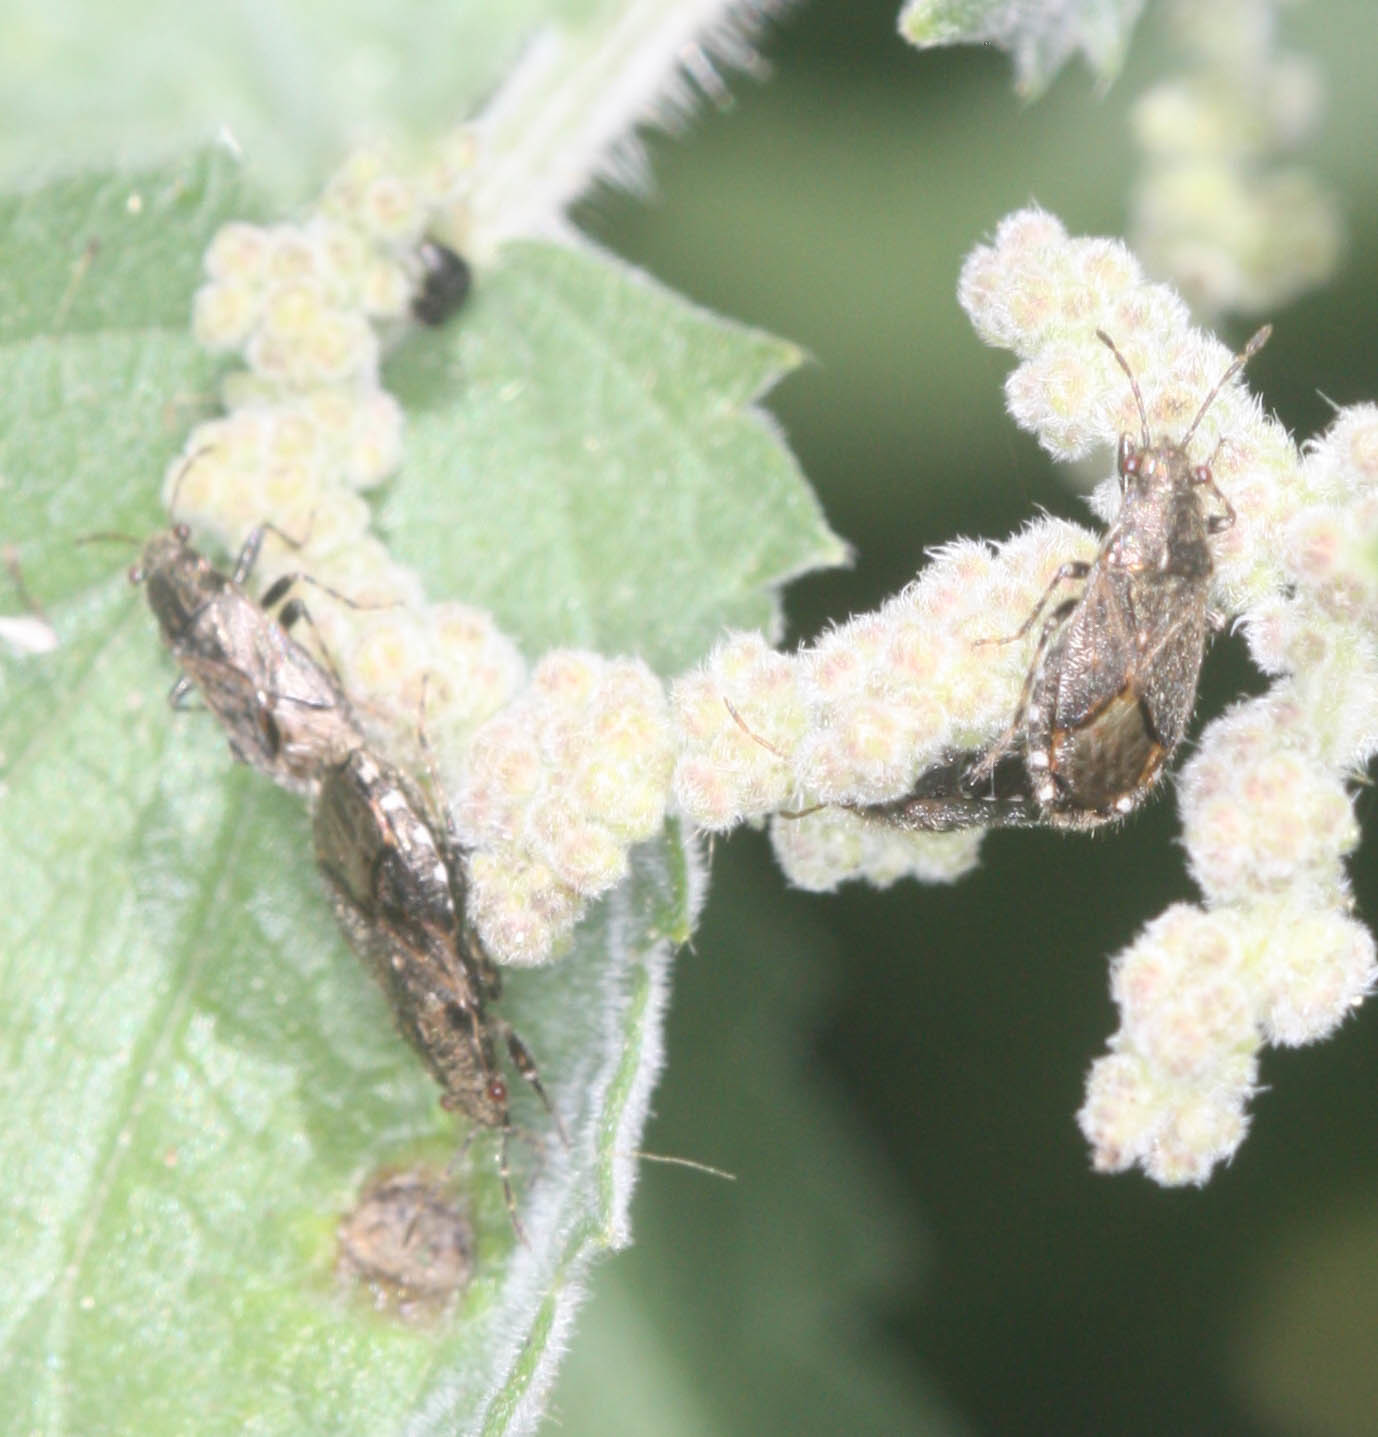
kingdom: Animalia
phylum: Arthropoda
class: Insecta
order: Hemiptera
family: Heterogastridae
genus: Heterogaster
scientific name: Heterogaster behrensii
